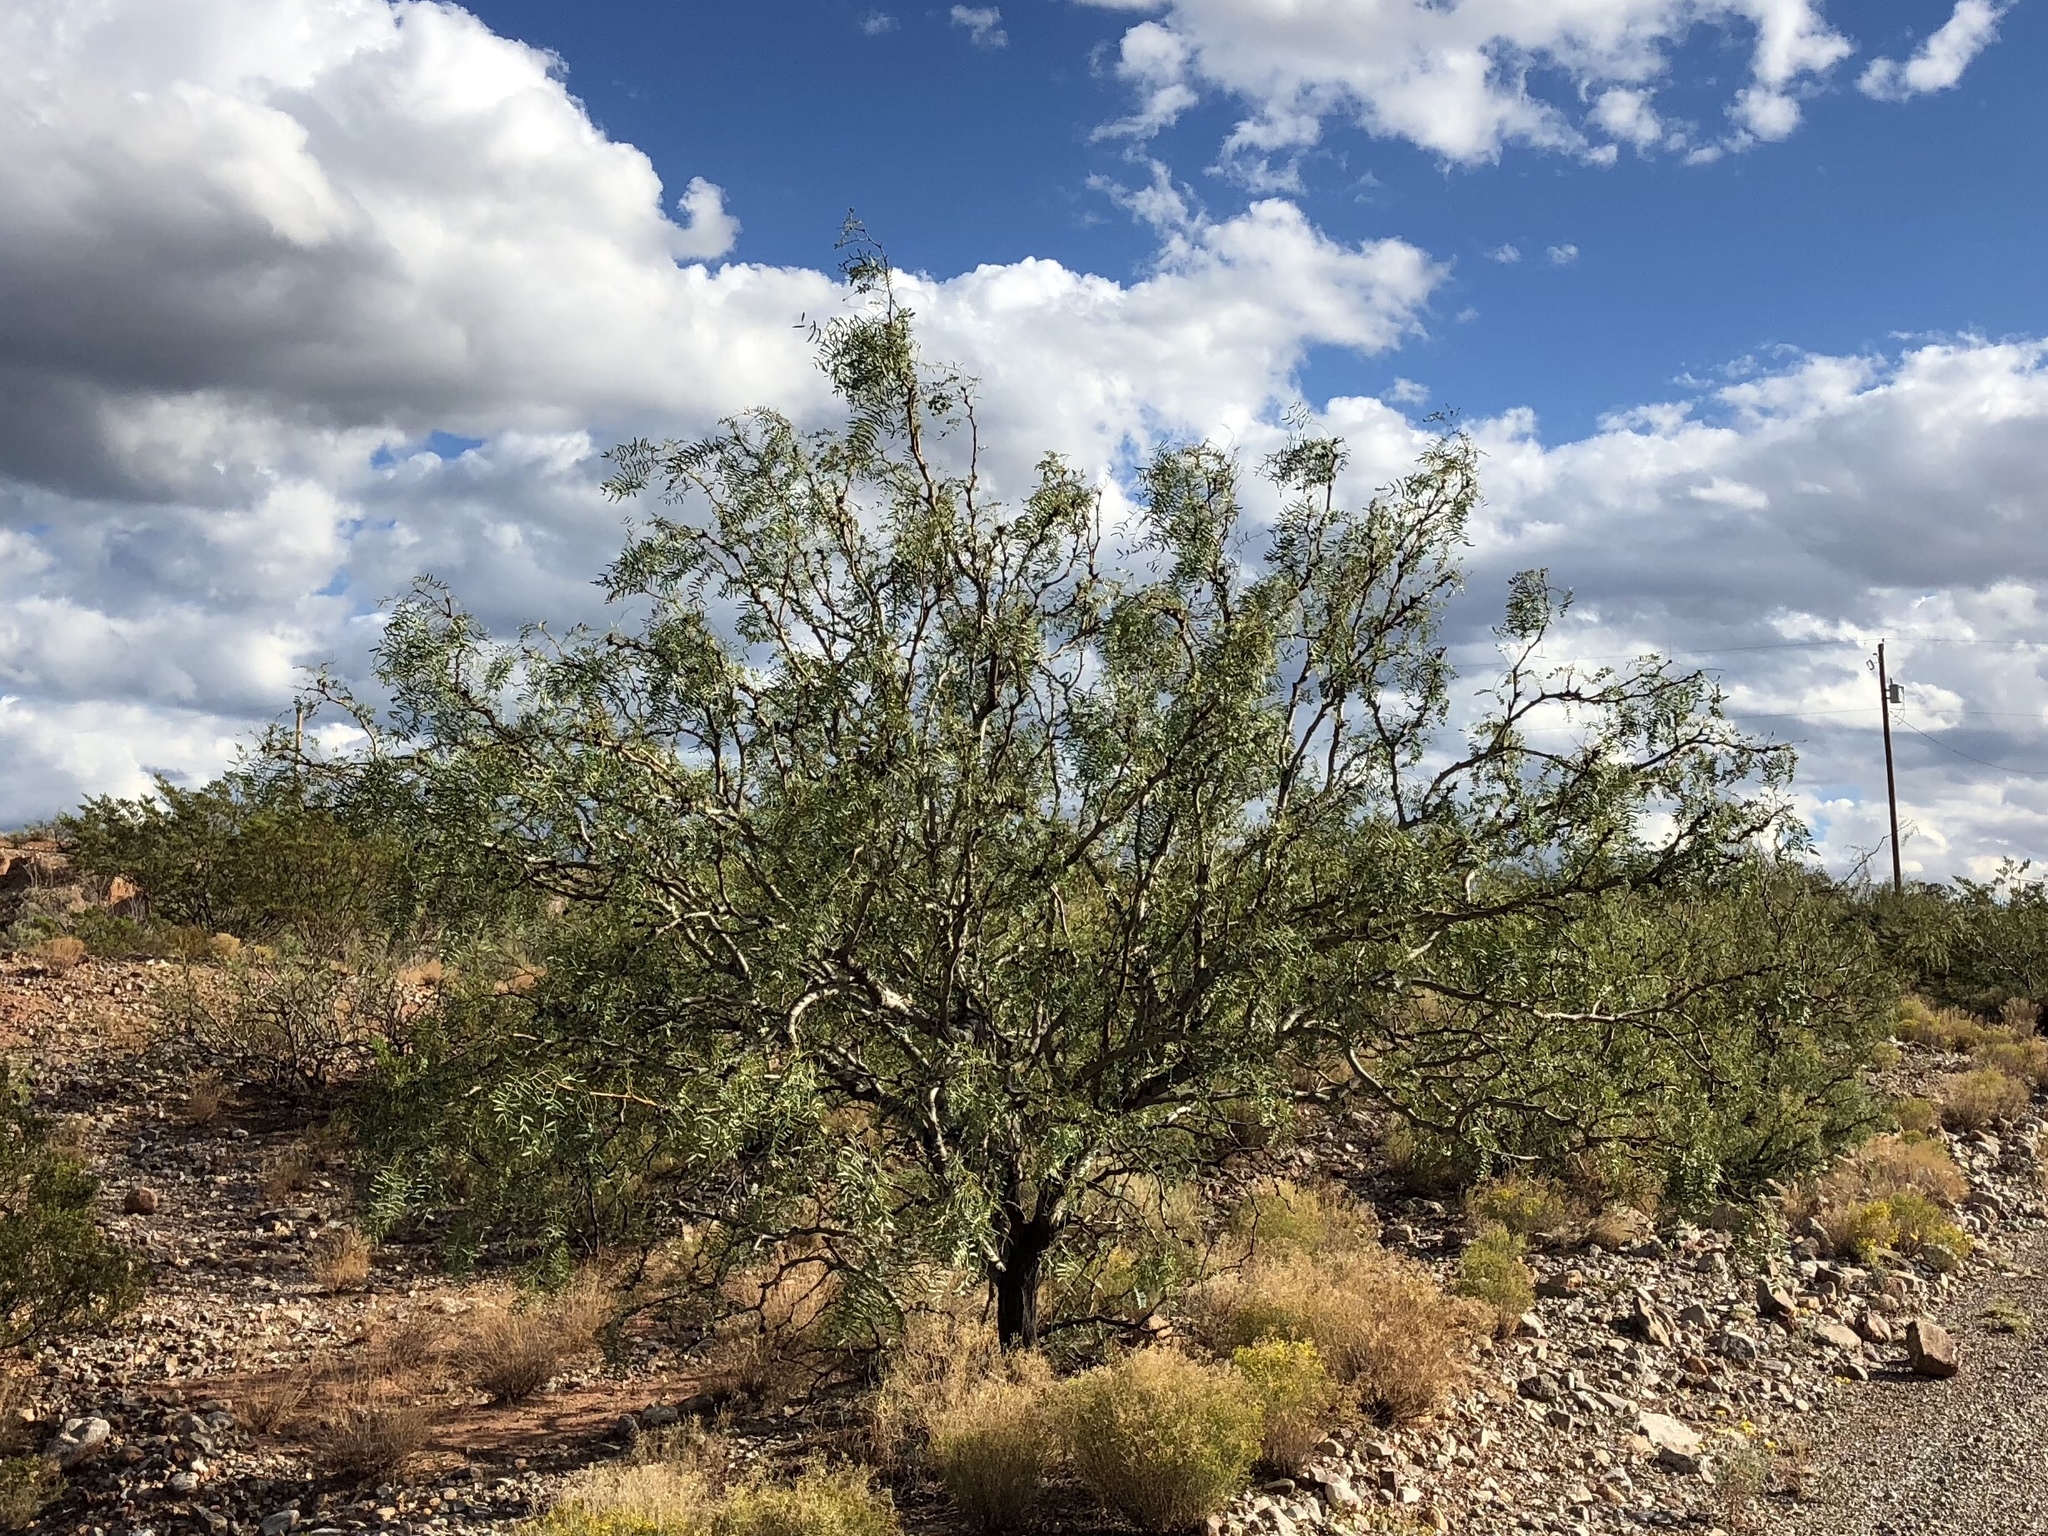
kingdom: Plantae
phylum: Tracheophyta
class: Magnoliopsida
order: Fabales
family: Fabaceae
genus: Prosopis
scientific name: Prosopis glandulosa
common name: Honey mesquite
